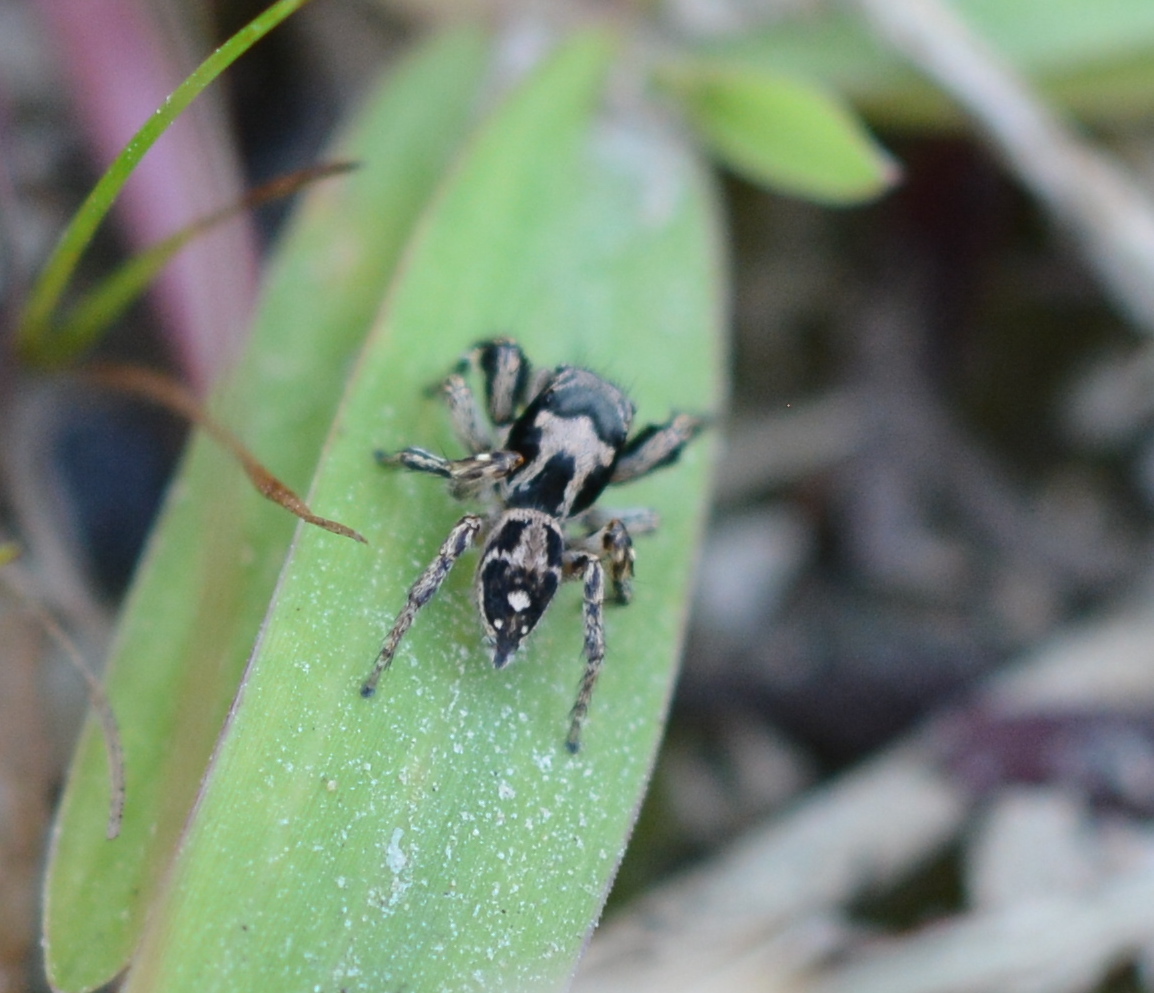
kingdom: Animalia
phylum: Arthropoda
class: Arachnida
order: Araneae
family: Salticidae
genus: Habronattus
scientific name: Habronattus coecatus
